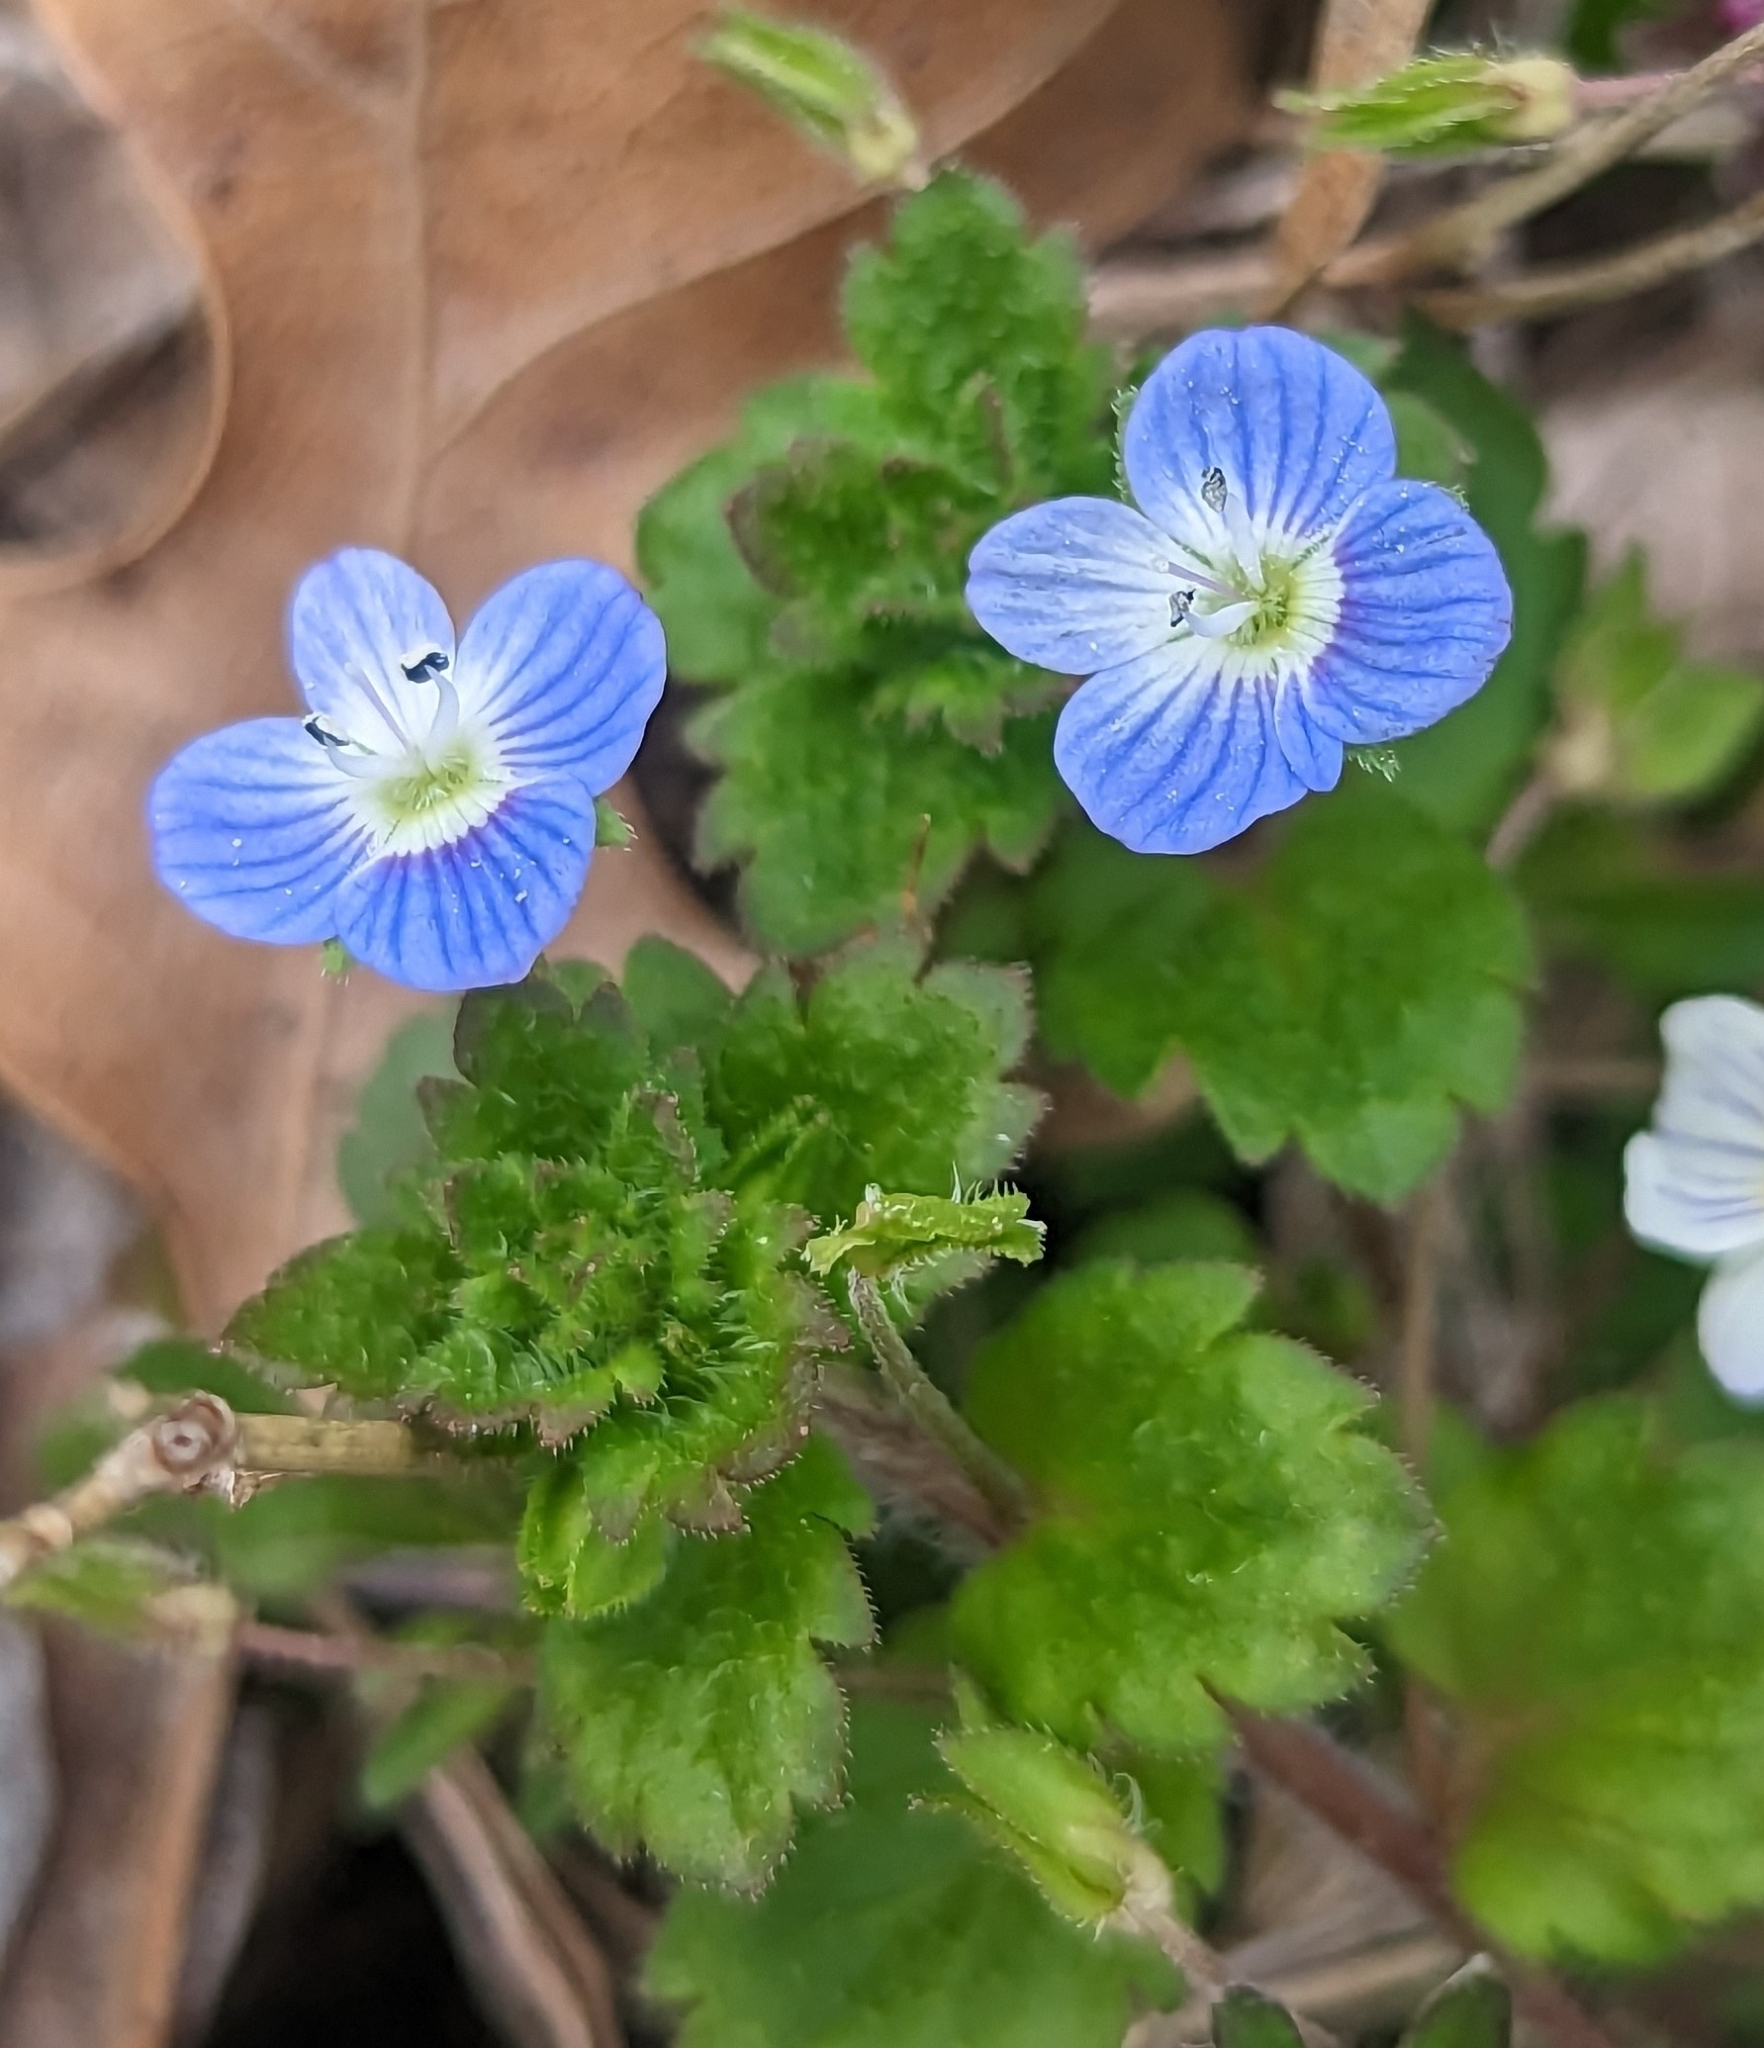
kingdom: Plantae
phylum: Tracheophyta
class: Magnoliopsida
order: Lamiales
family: Plantaginaceae
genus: Veronica
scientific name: Veronica persica
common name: Common field-speedwell
